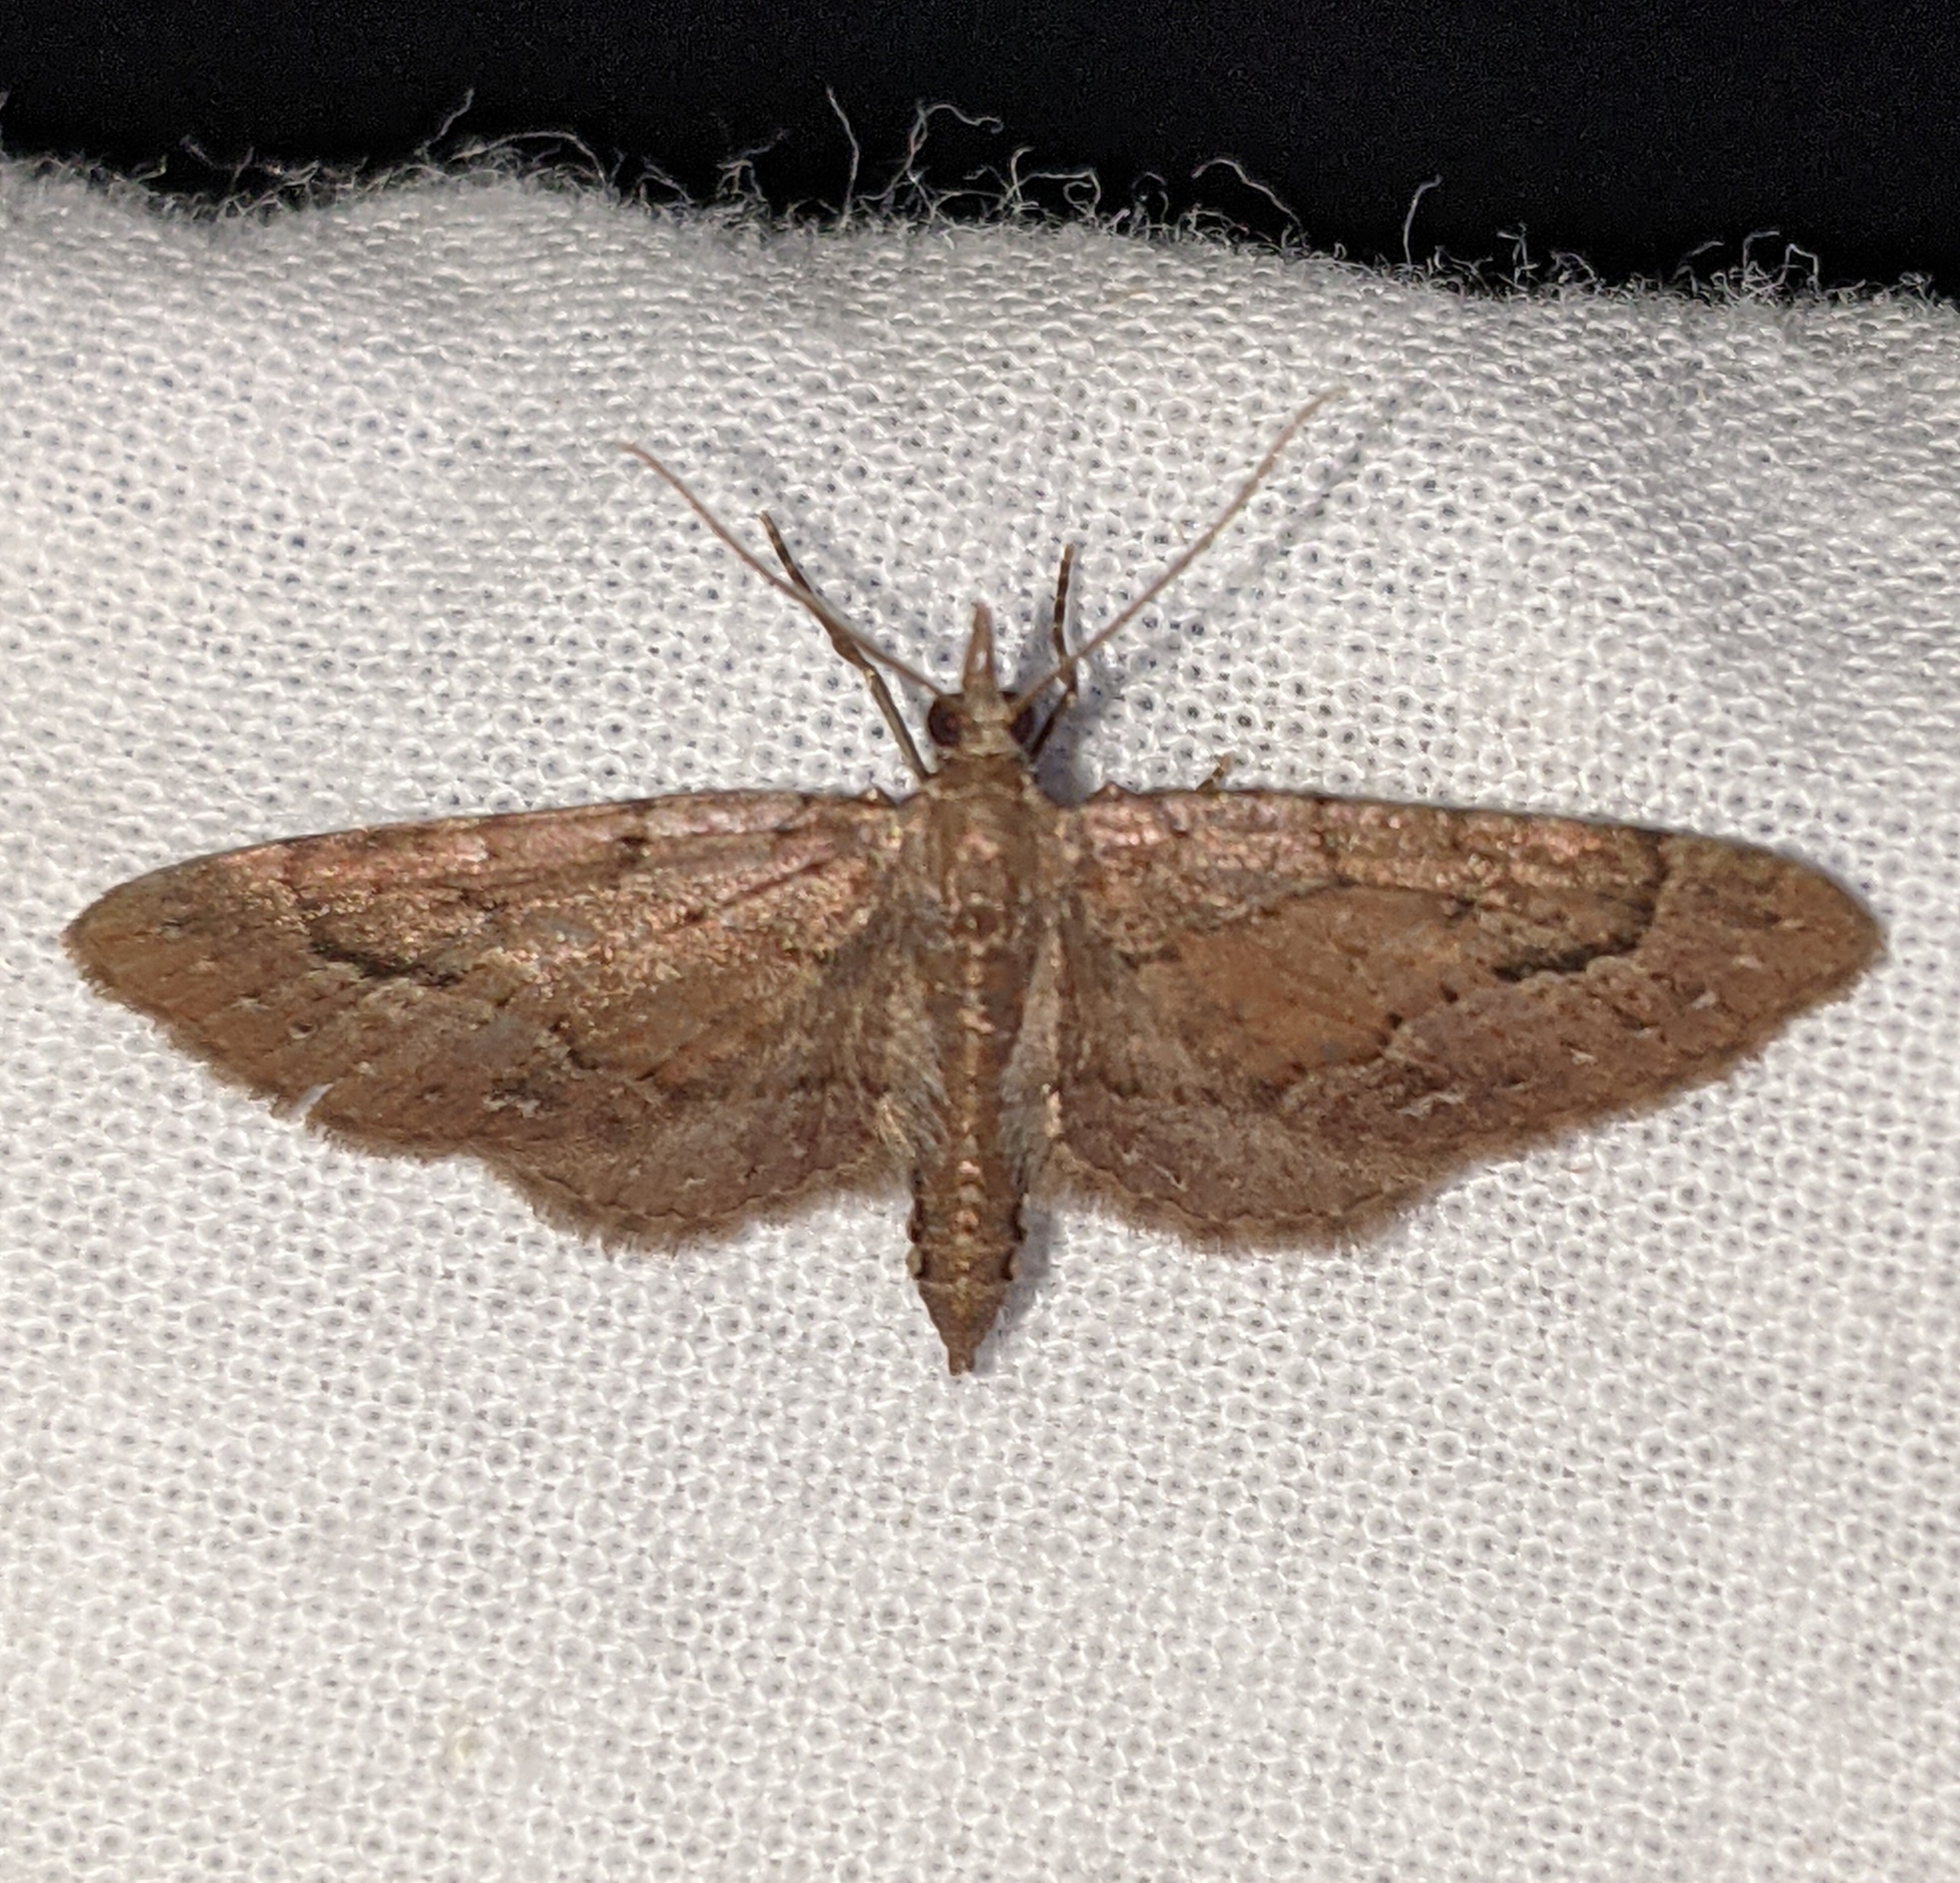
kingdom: Animalia
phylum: Arthropoda
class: Insecta
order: Lepidoptera
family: Geometridae
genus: Eupithecia
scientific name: Eupithecia unicolor
